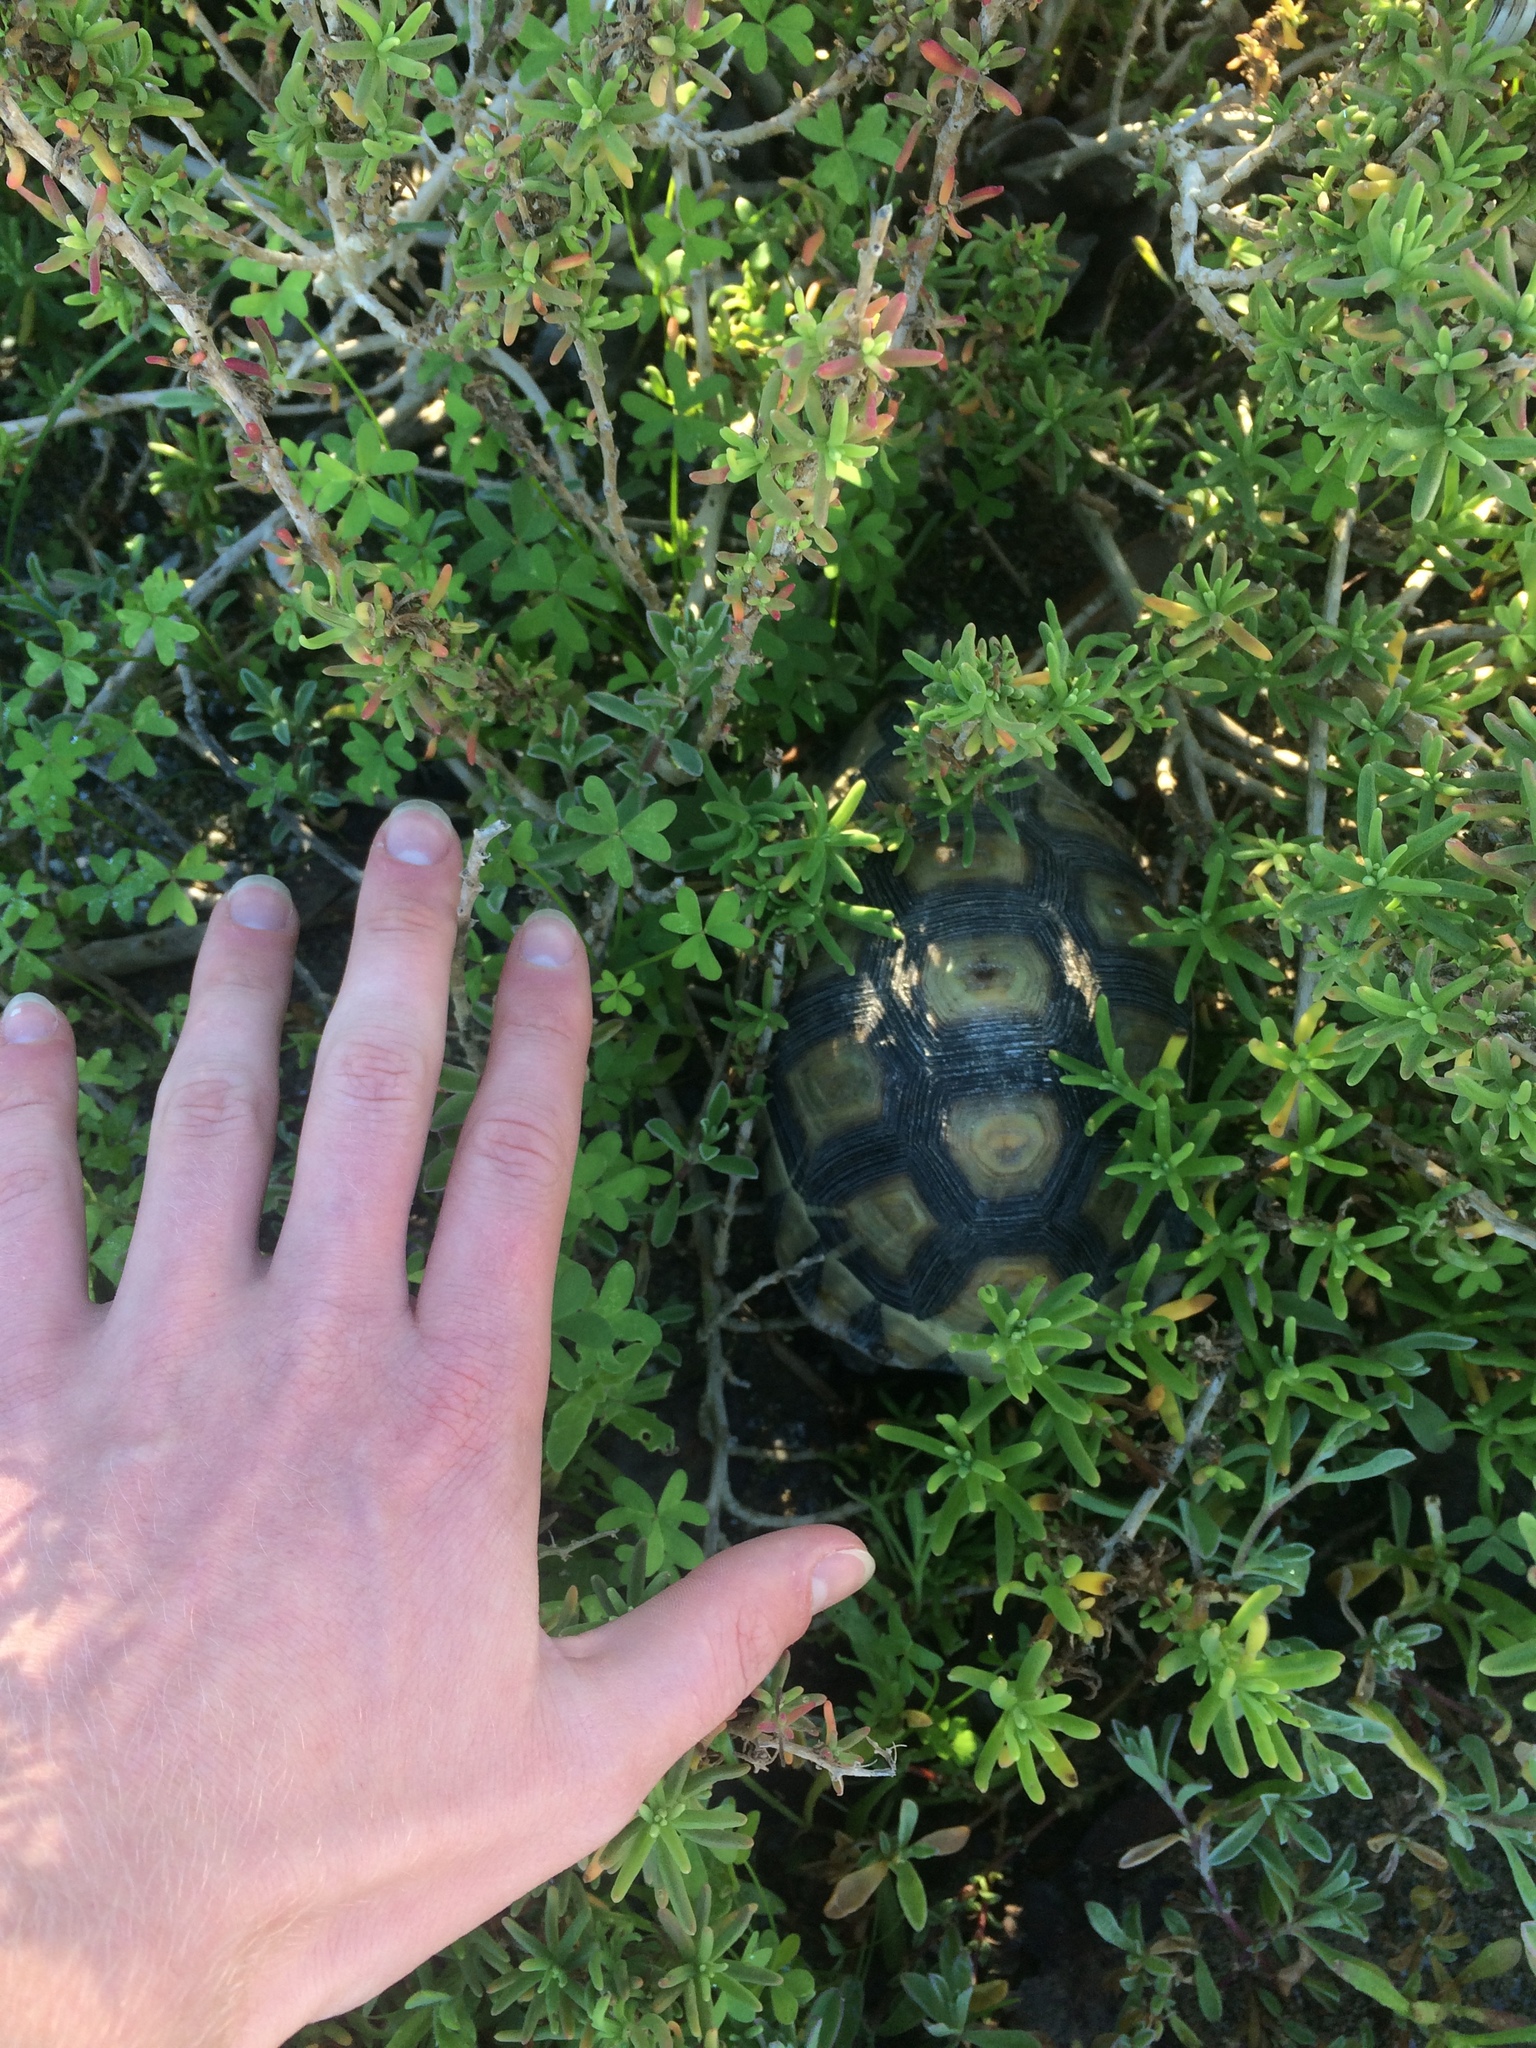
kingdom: Animalia
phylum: Chordata
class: Testudines
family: Testudinidae
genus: Chersina
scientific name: Chersina angulata
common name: South african bowsprit tortoise
